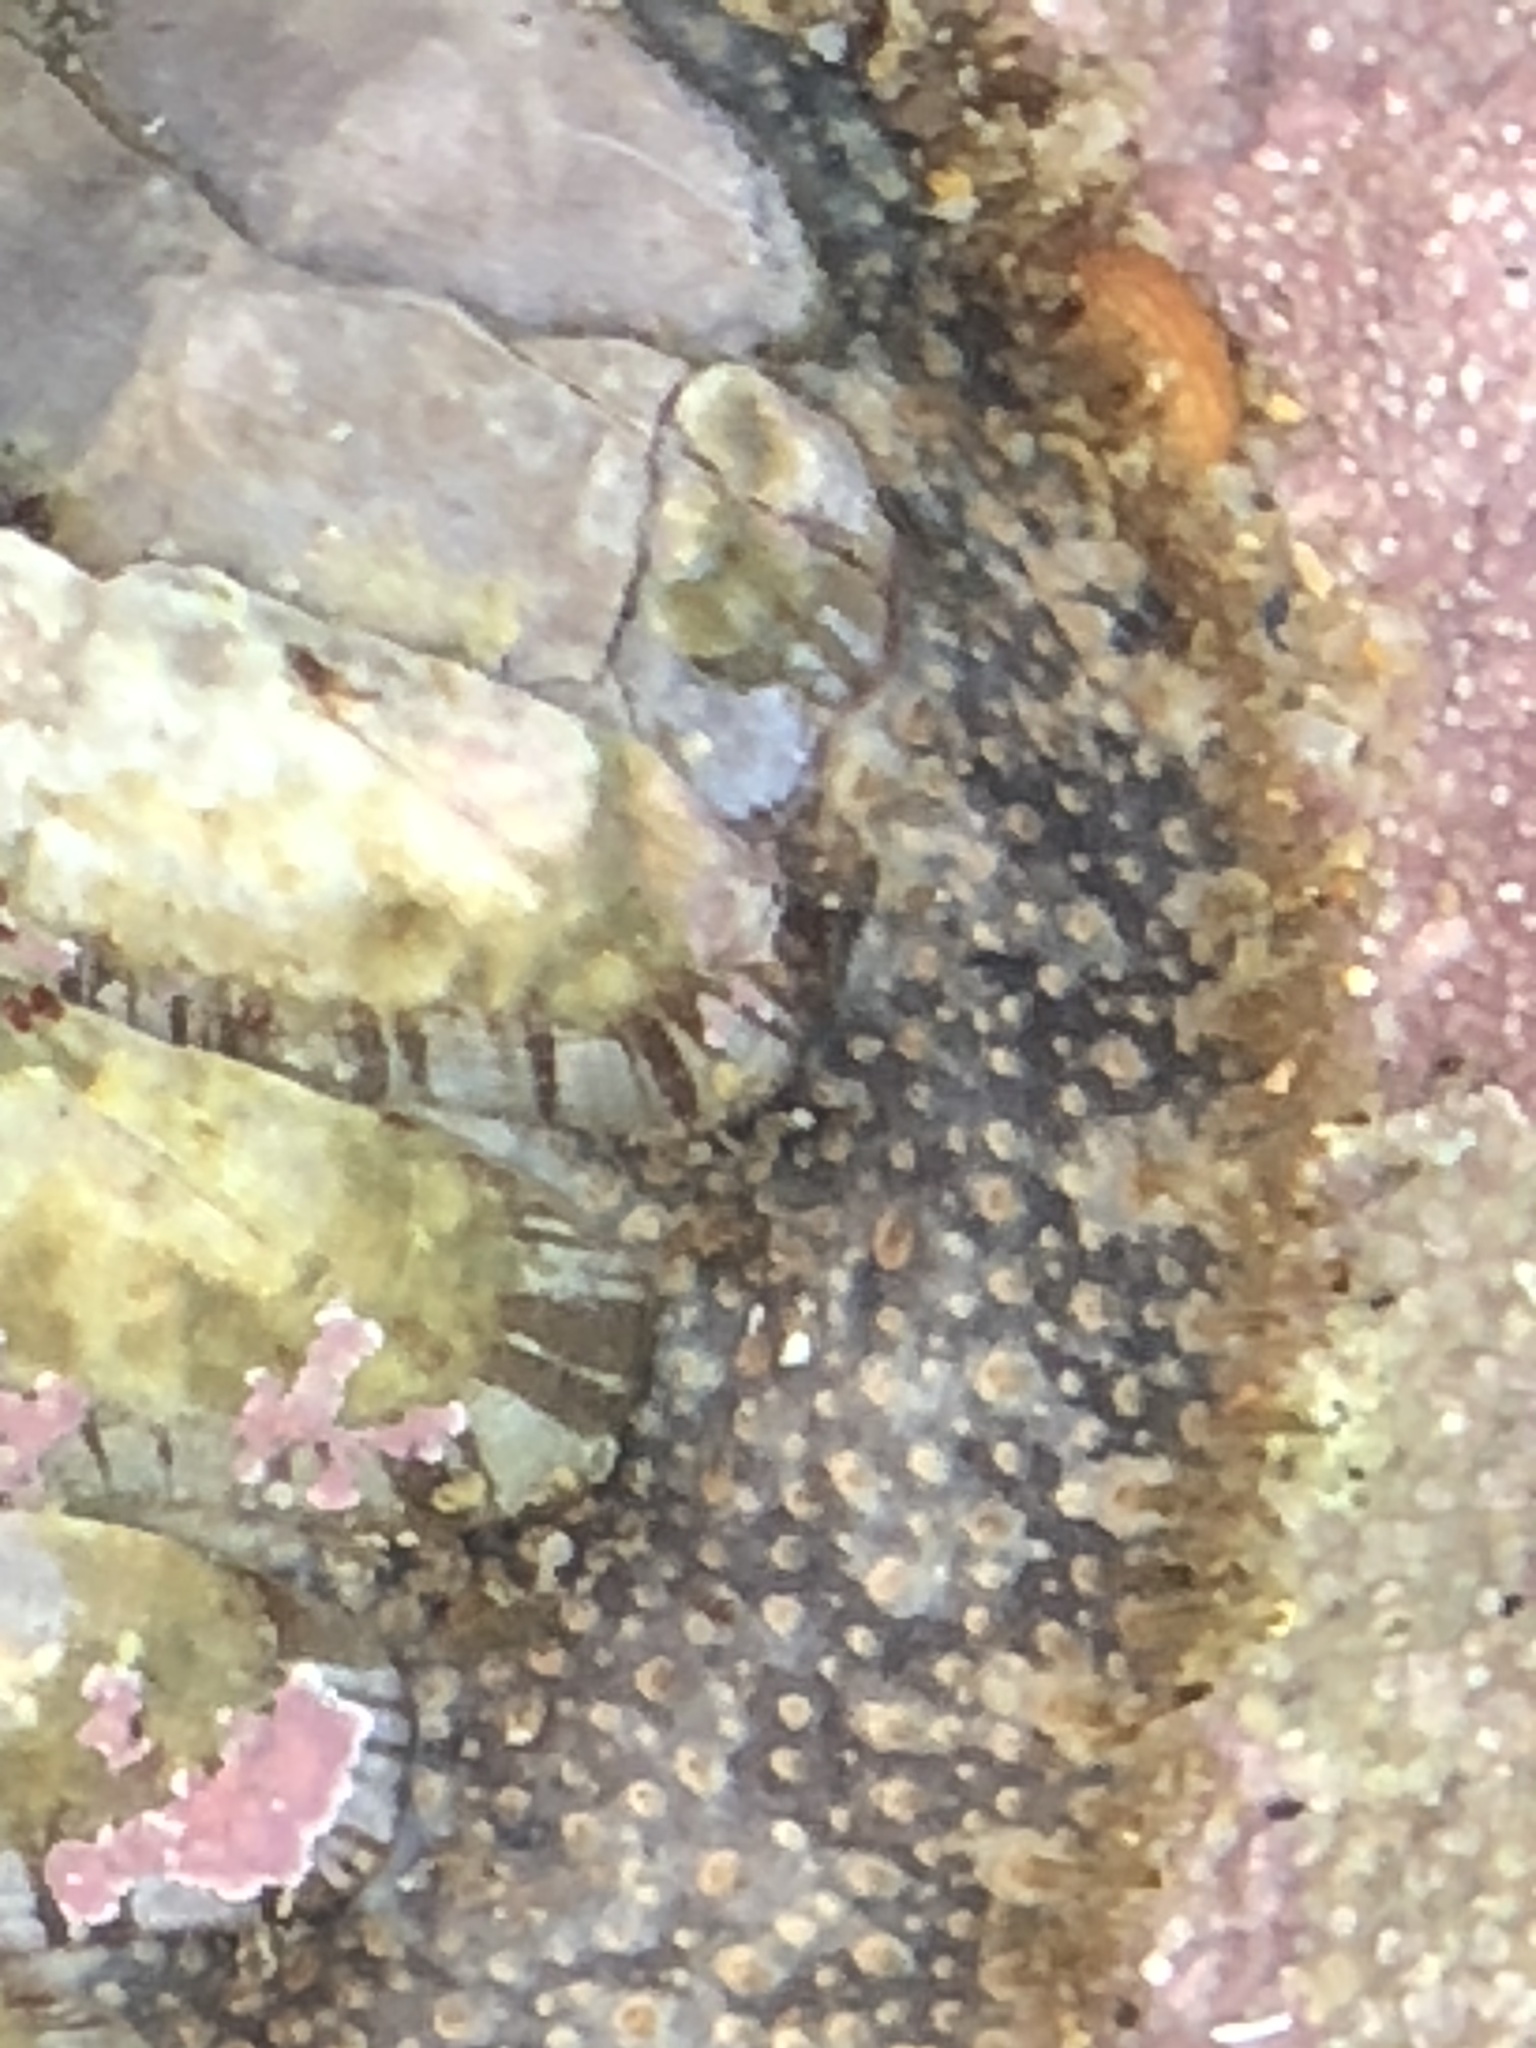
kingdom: Animalia
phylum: Mollusca
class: Polyplacophora
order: Chitonida
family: Mopaliidae
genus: Mopalia
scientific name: Mopalia lignosa
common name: Woody chiton
